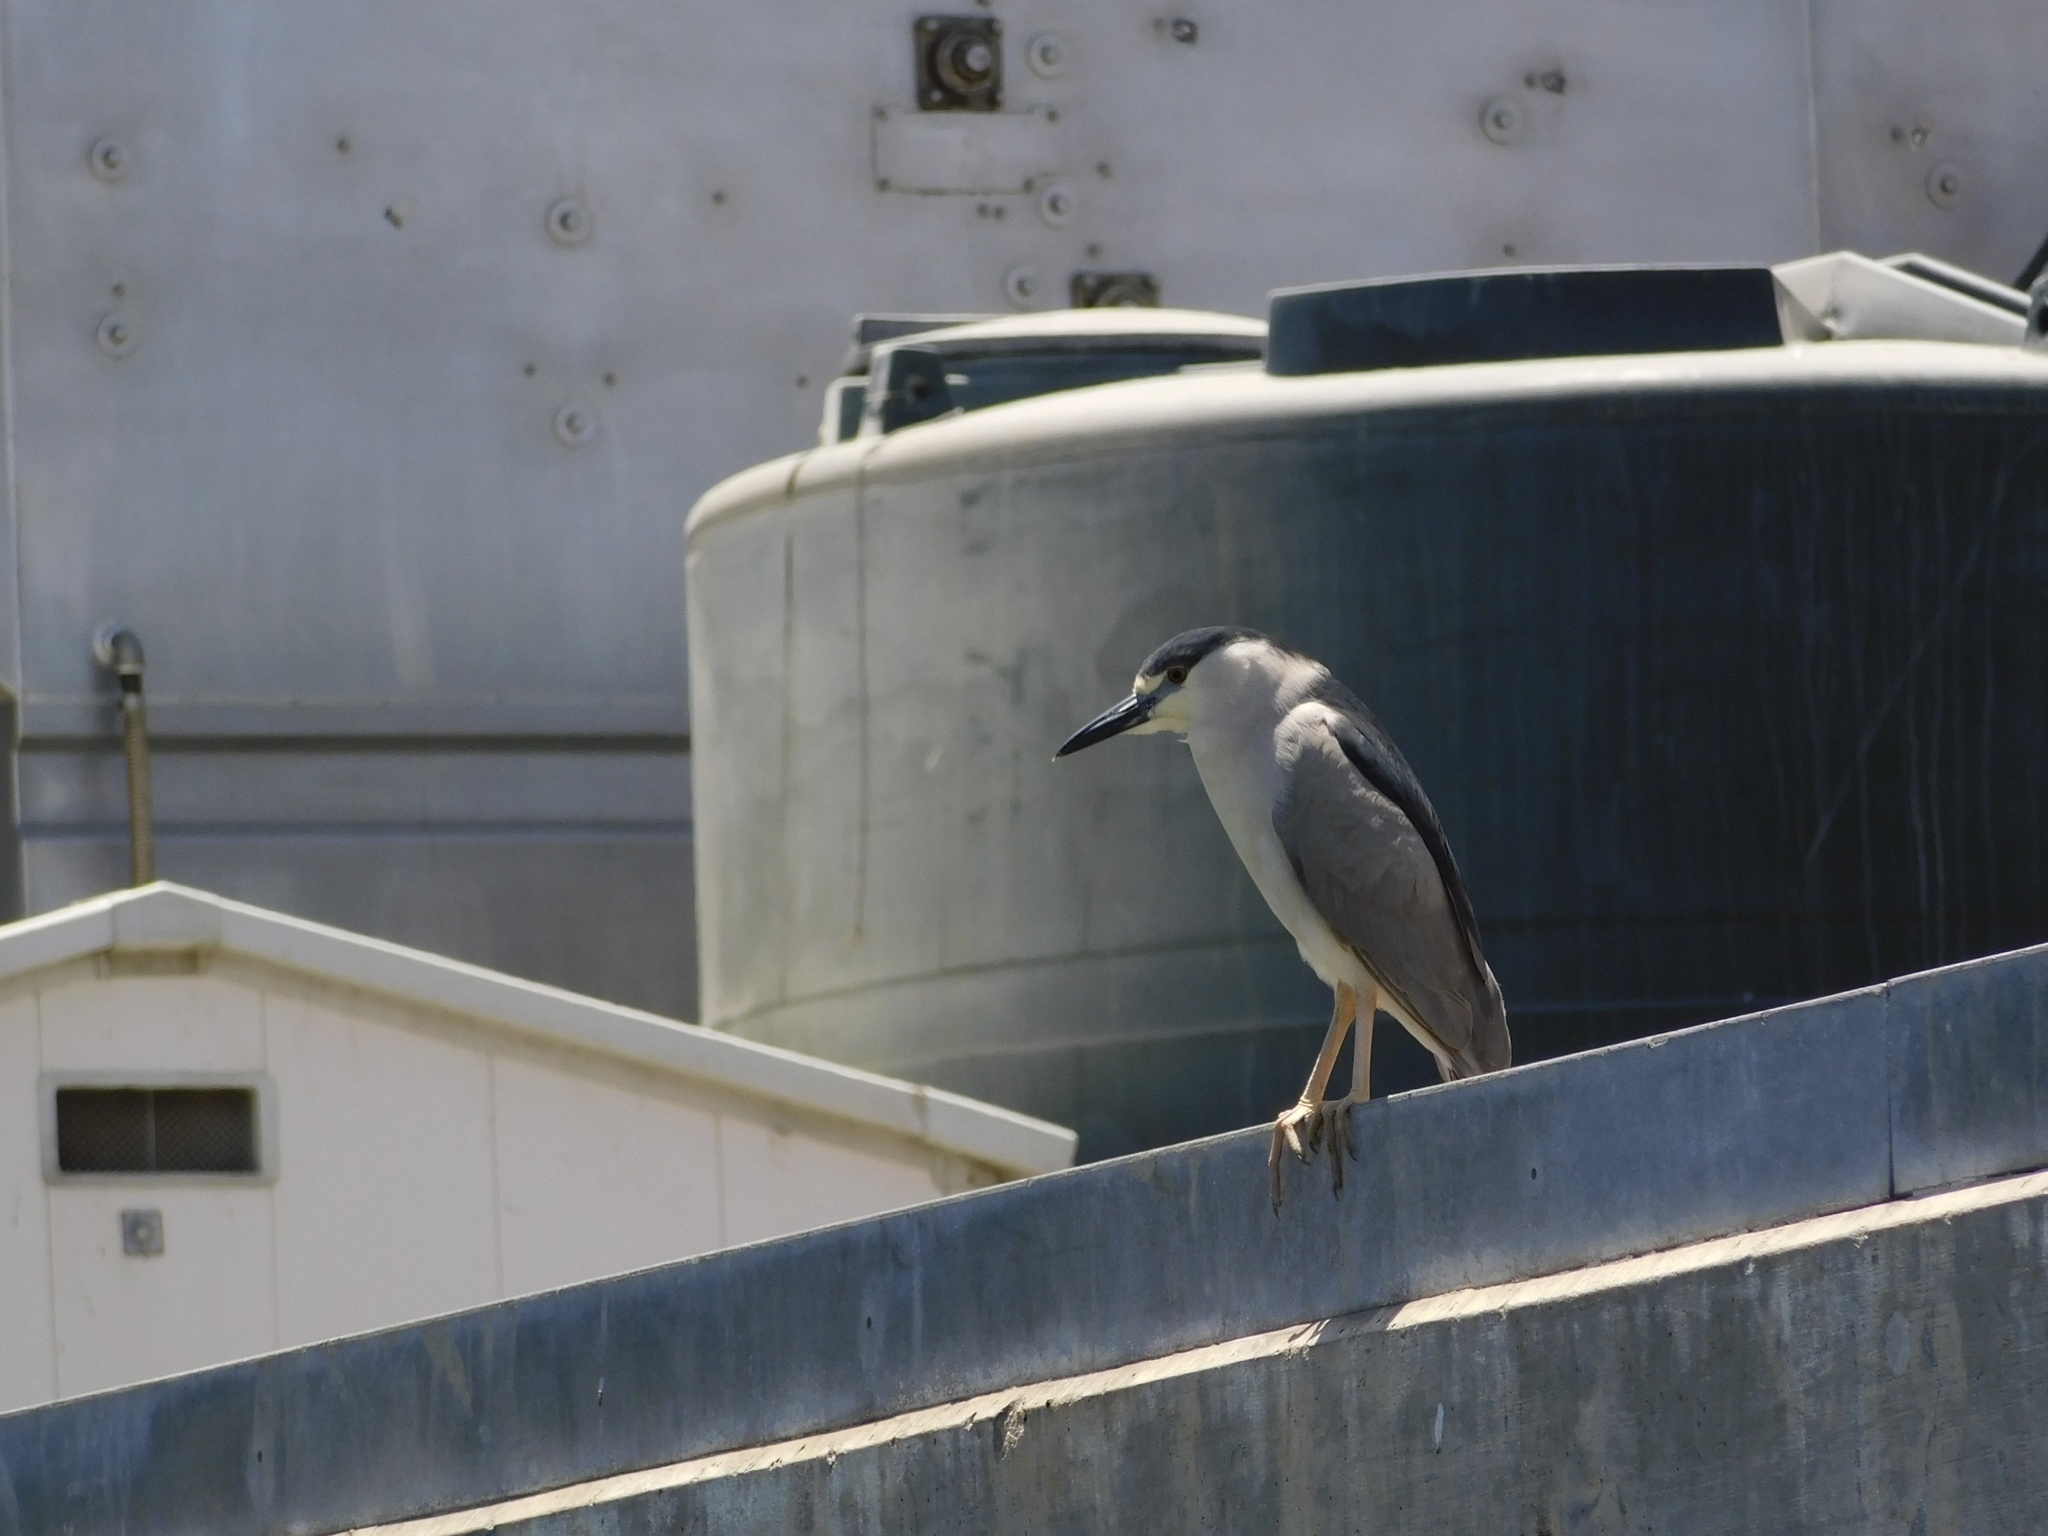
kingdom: Animalia
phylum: Chordata
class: Aves
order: Pelecaniformes
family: Ardeidae
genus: Nycticorax
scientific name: Nycticorax nycticorax
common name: Black-crowned night heron
